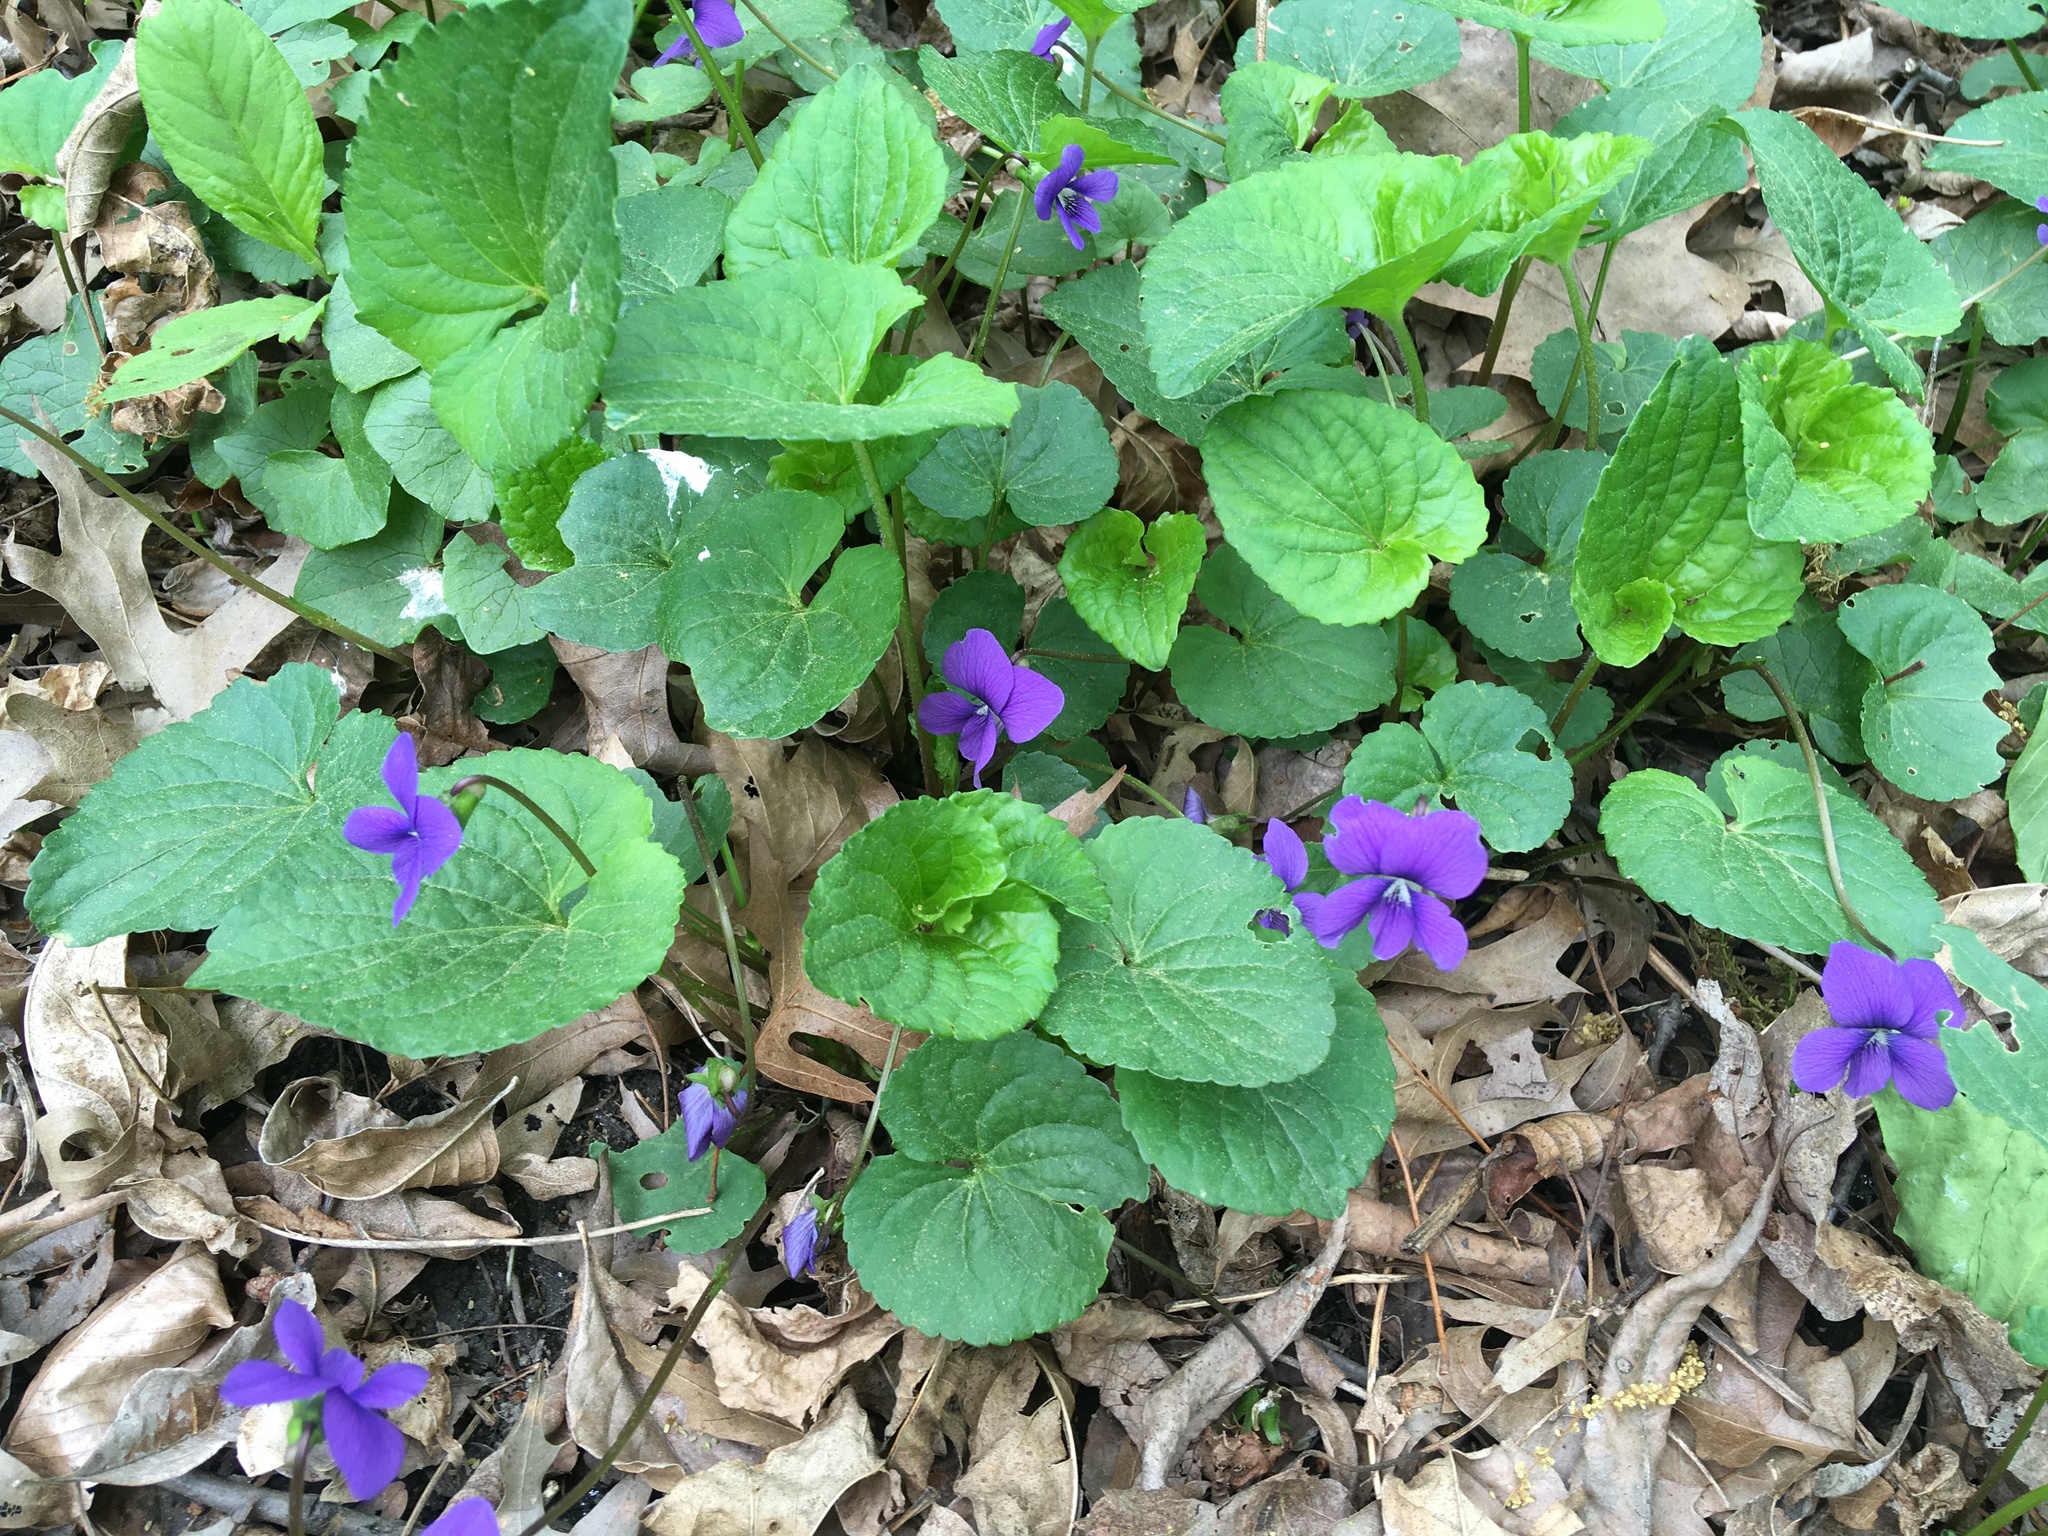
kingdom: Plantae
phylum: Tracheophyta
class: Magnoliopsida
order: Malpighiales
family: Violaceae
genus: Viola
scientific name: Viola sororia
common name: Dooryard violet
